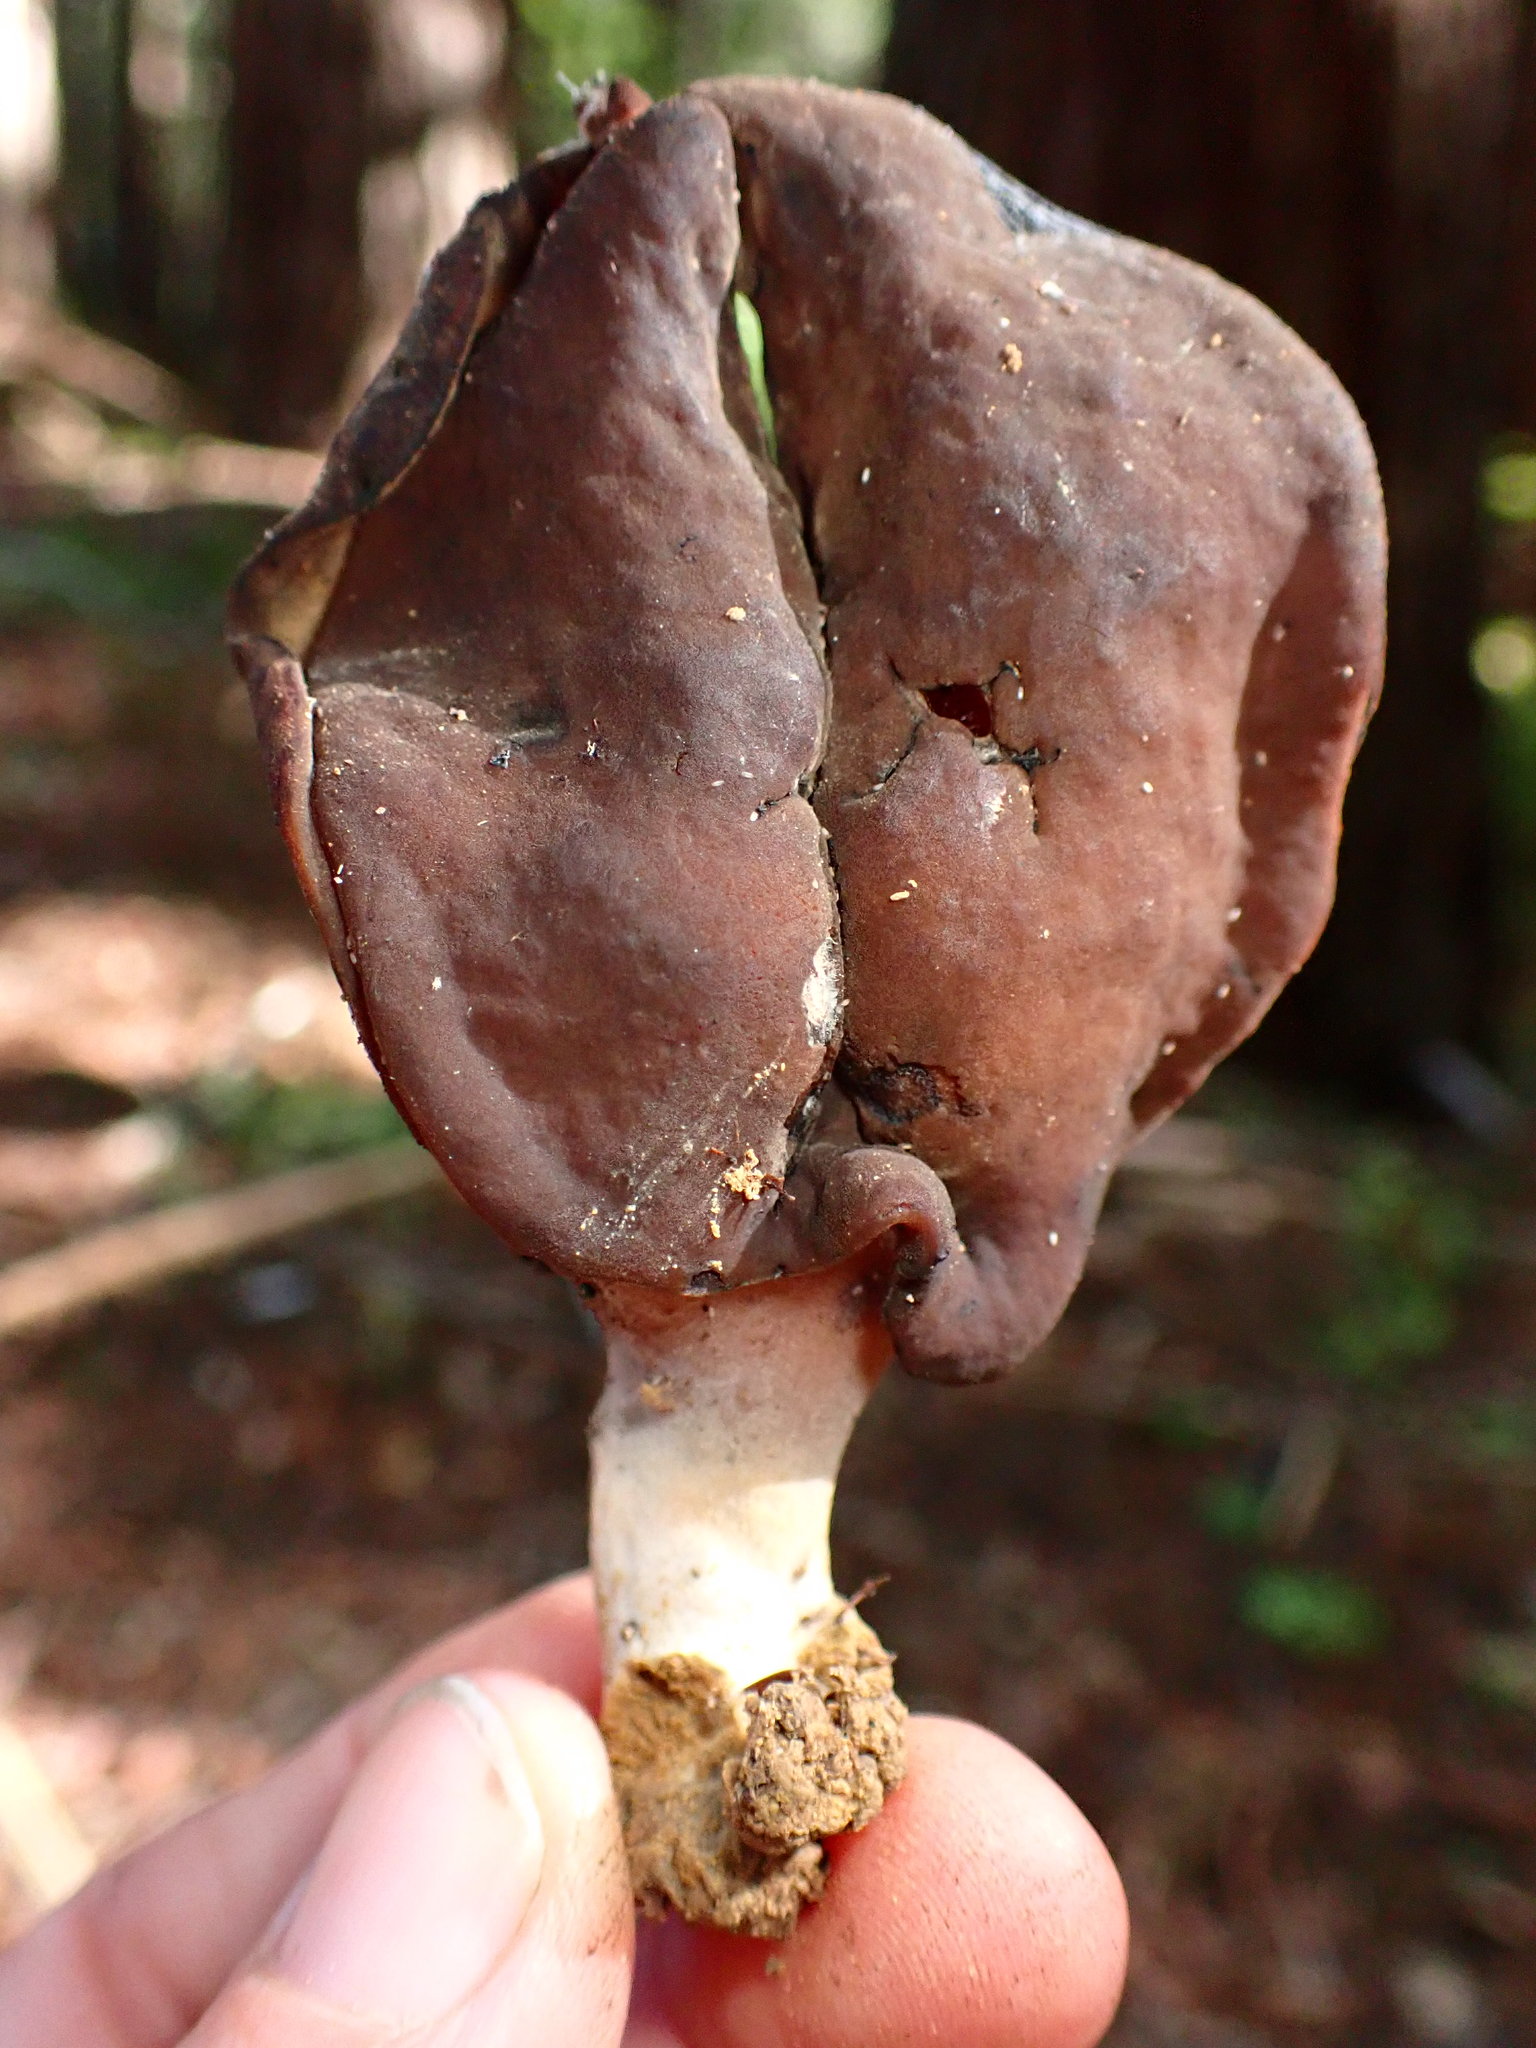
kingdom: Fungi
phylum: Ascomycota
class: Pezizomycetes
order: Pezizales
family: Discinaceae
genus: Gyromitra
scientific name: Gyromitra infula
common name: Pouched false morel
